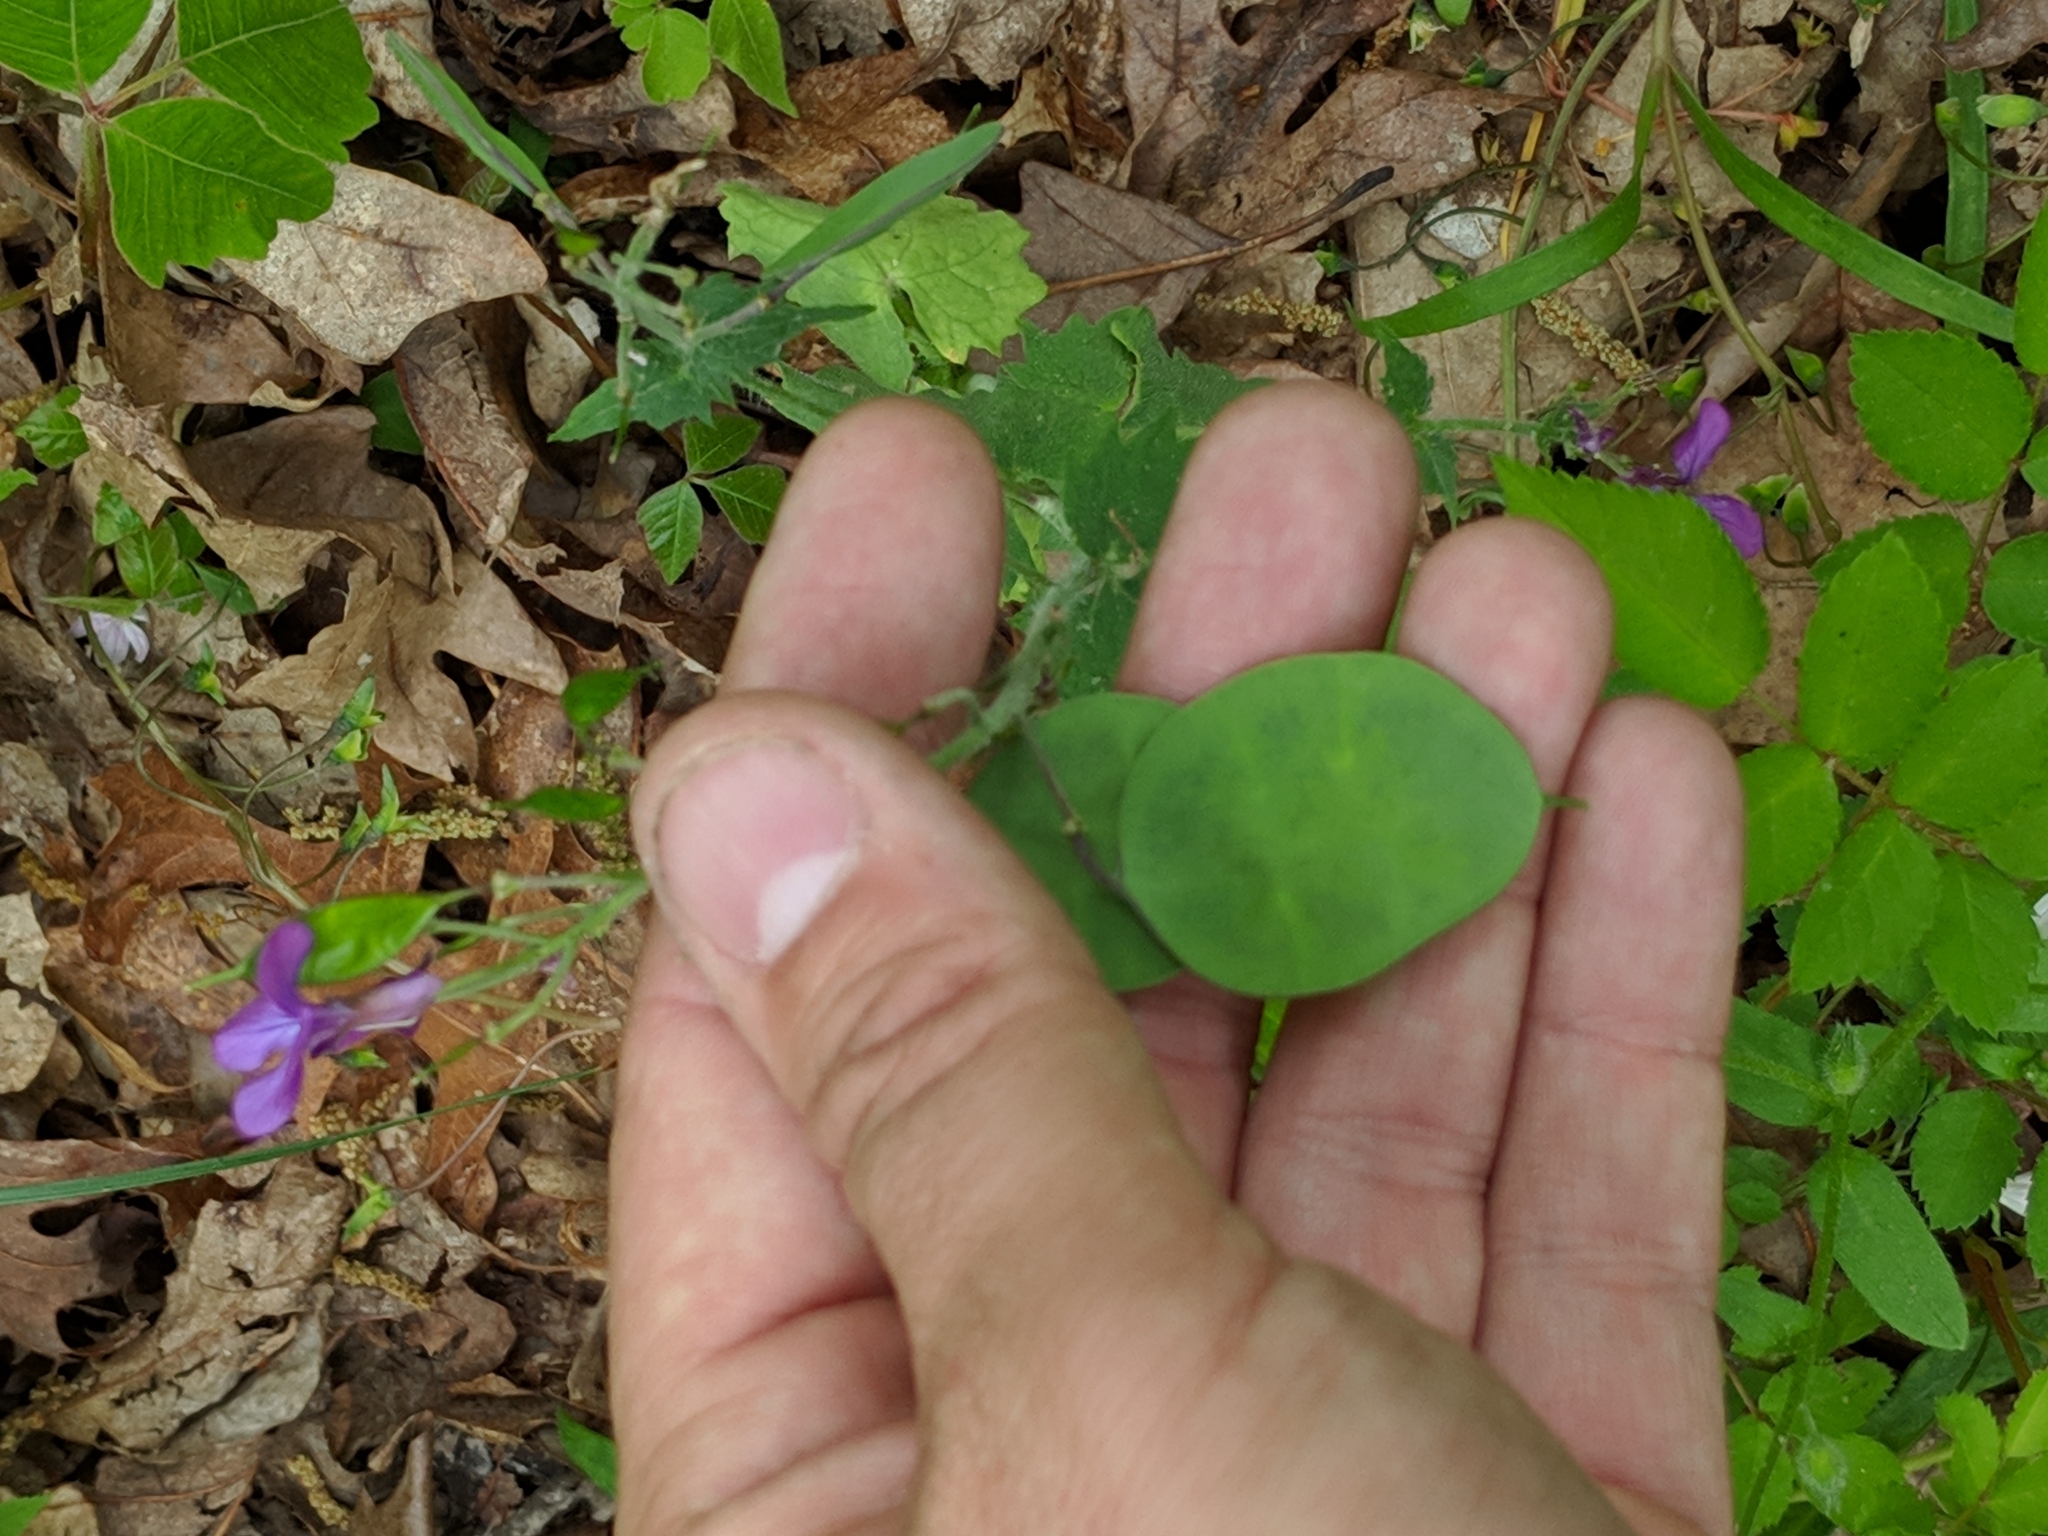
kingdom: Plantae
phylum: Tracheophyta
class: Magnoliopsida
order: Brassicales
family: Brassicaceae
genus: Lunaria
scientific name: Lunaria annua
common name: Honesty
